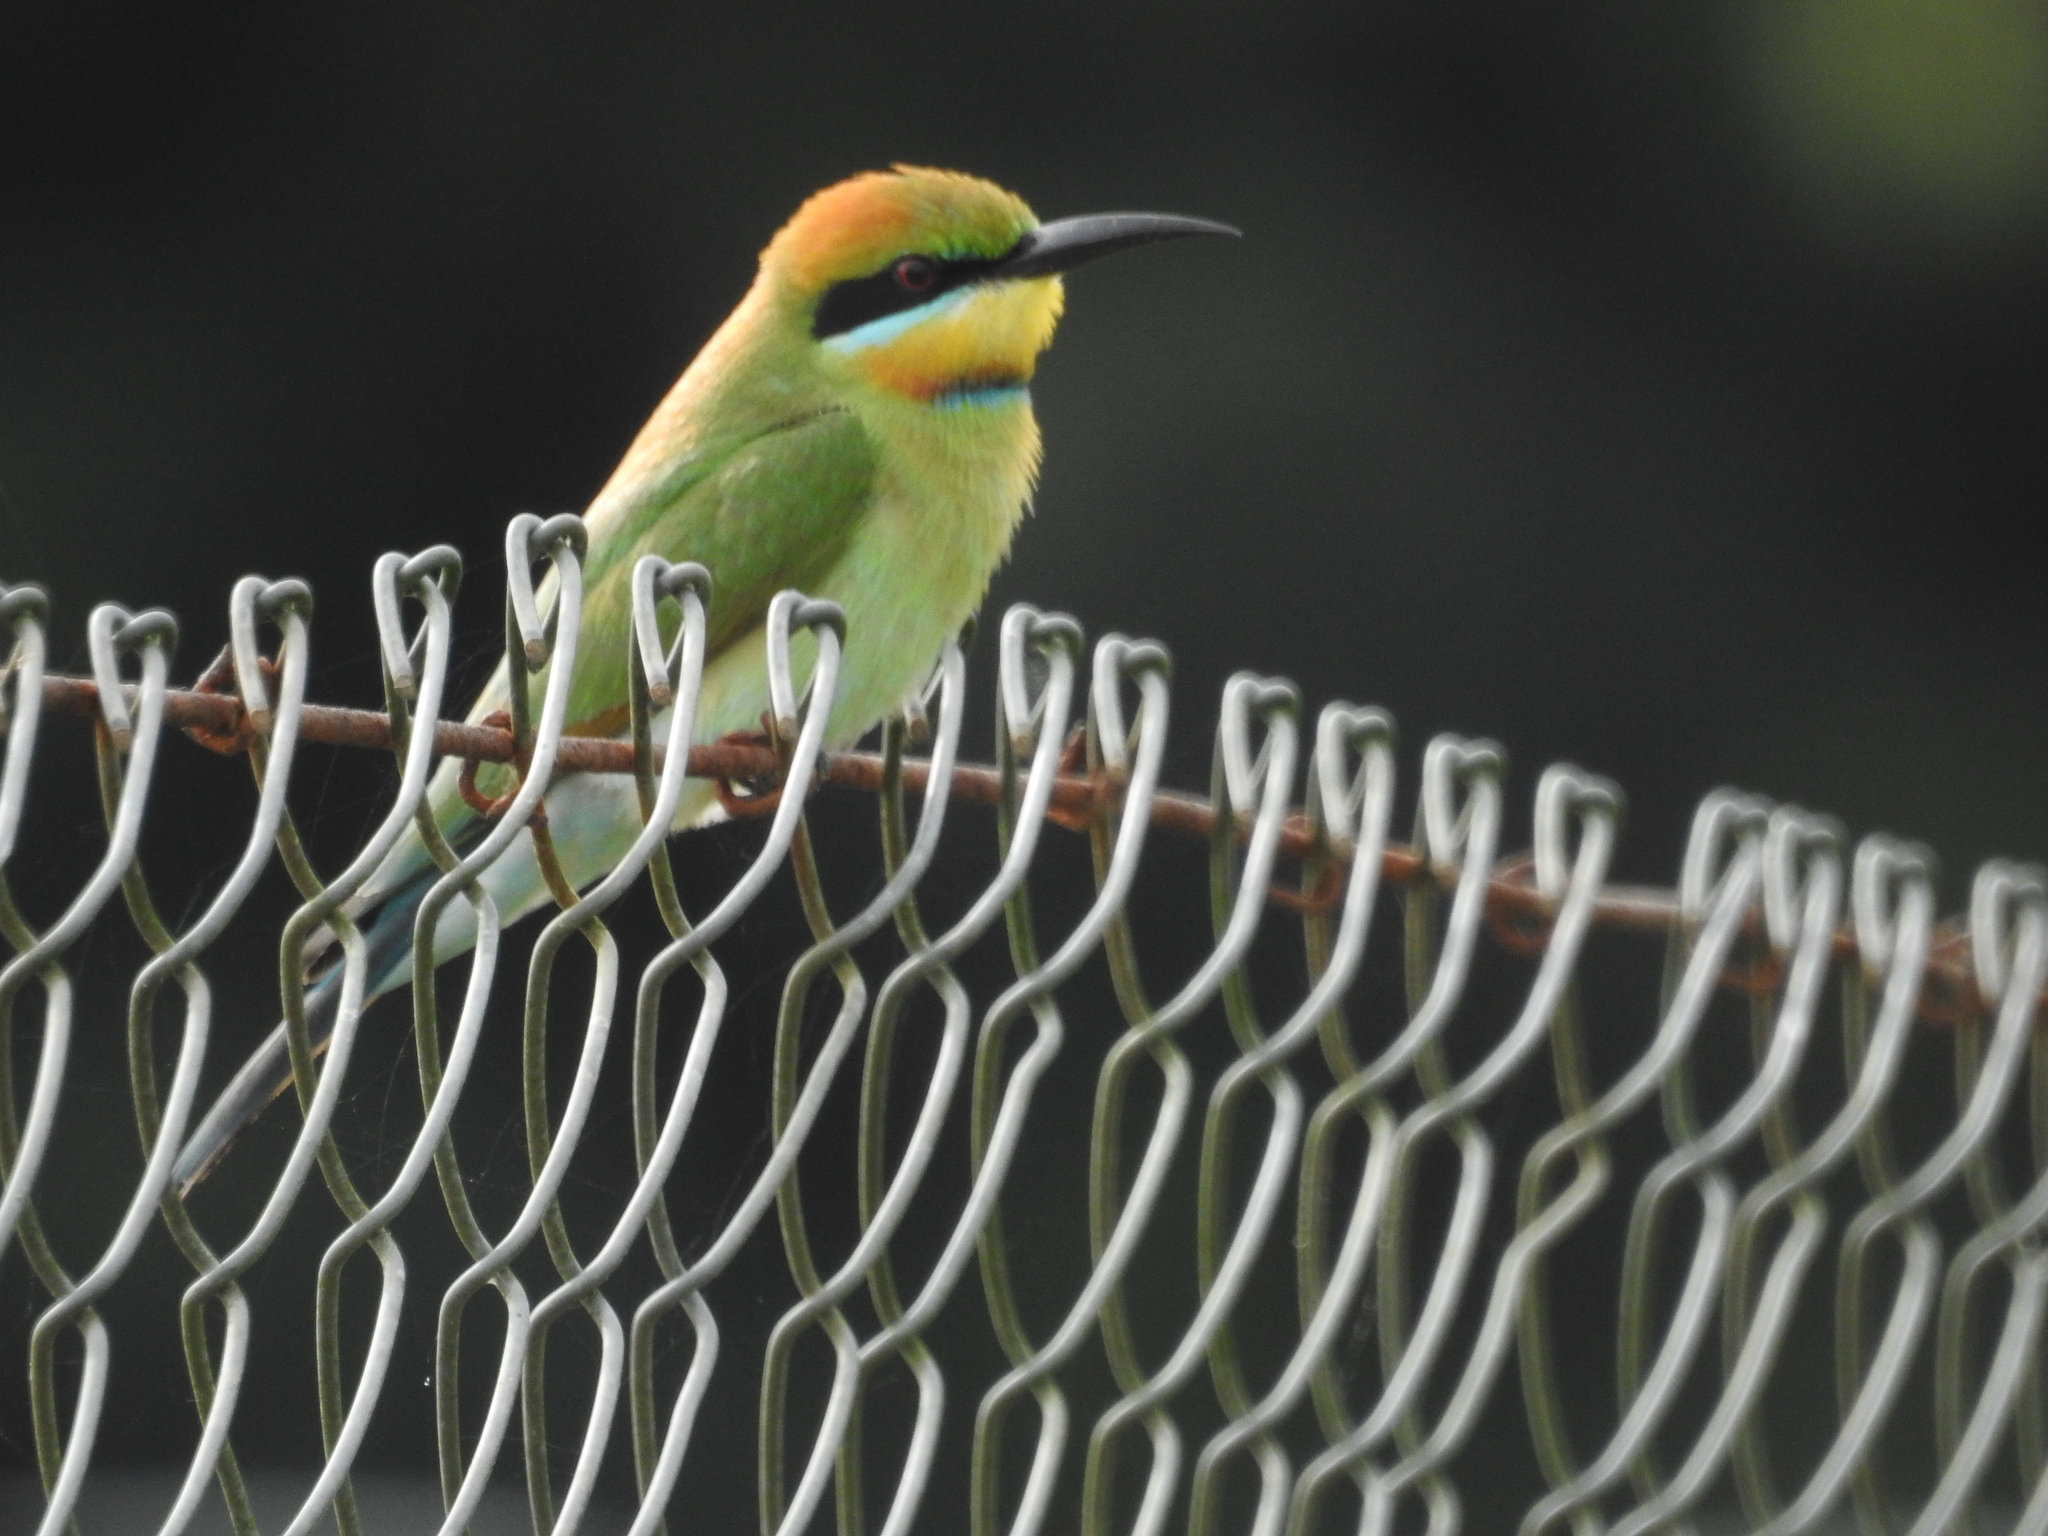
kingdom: Animalia
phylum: Chordata
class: Aves
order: Coraciiformes
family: Meropidae
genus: Merops
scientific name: Merops ornatus
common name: Rainbow bee-eater
